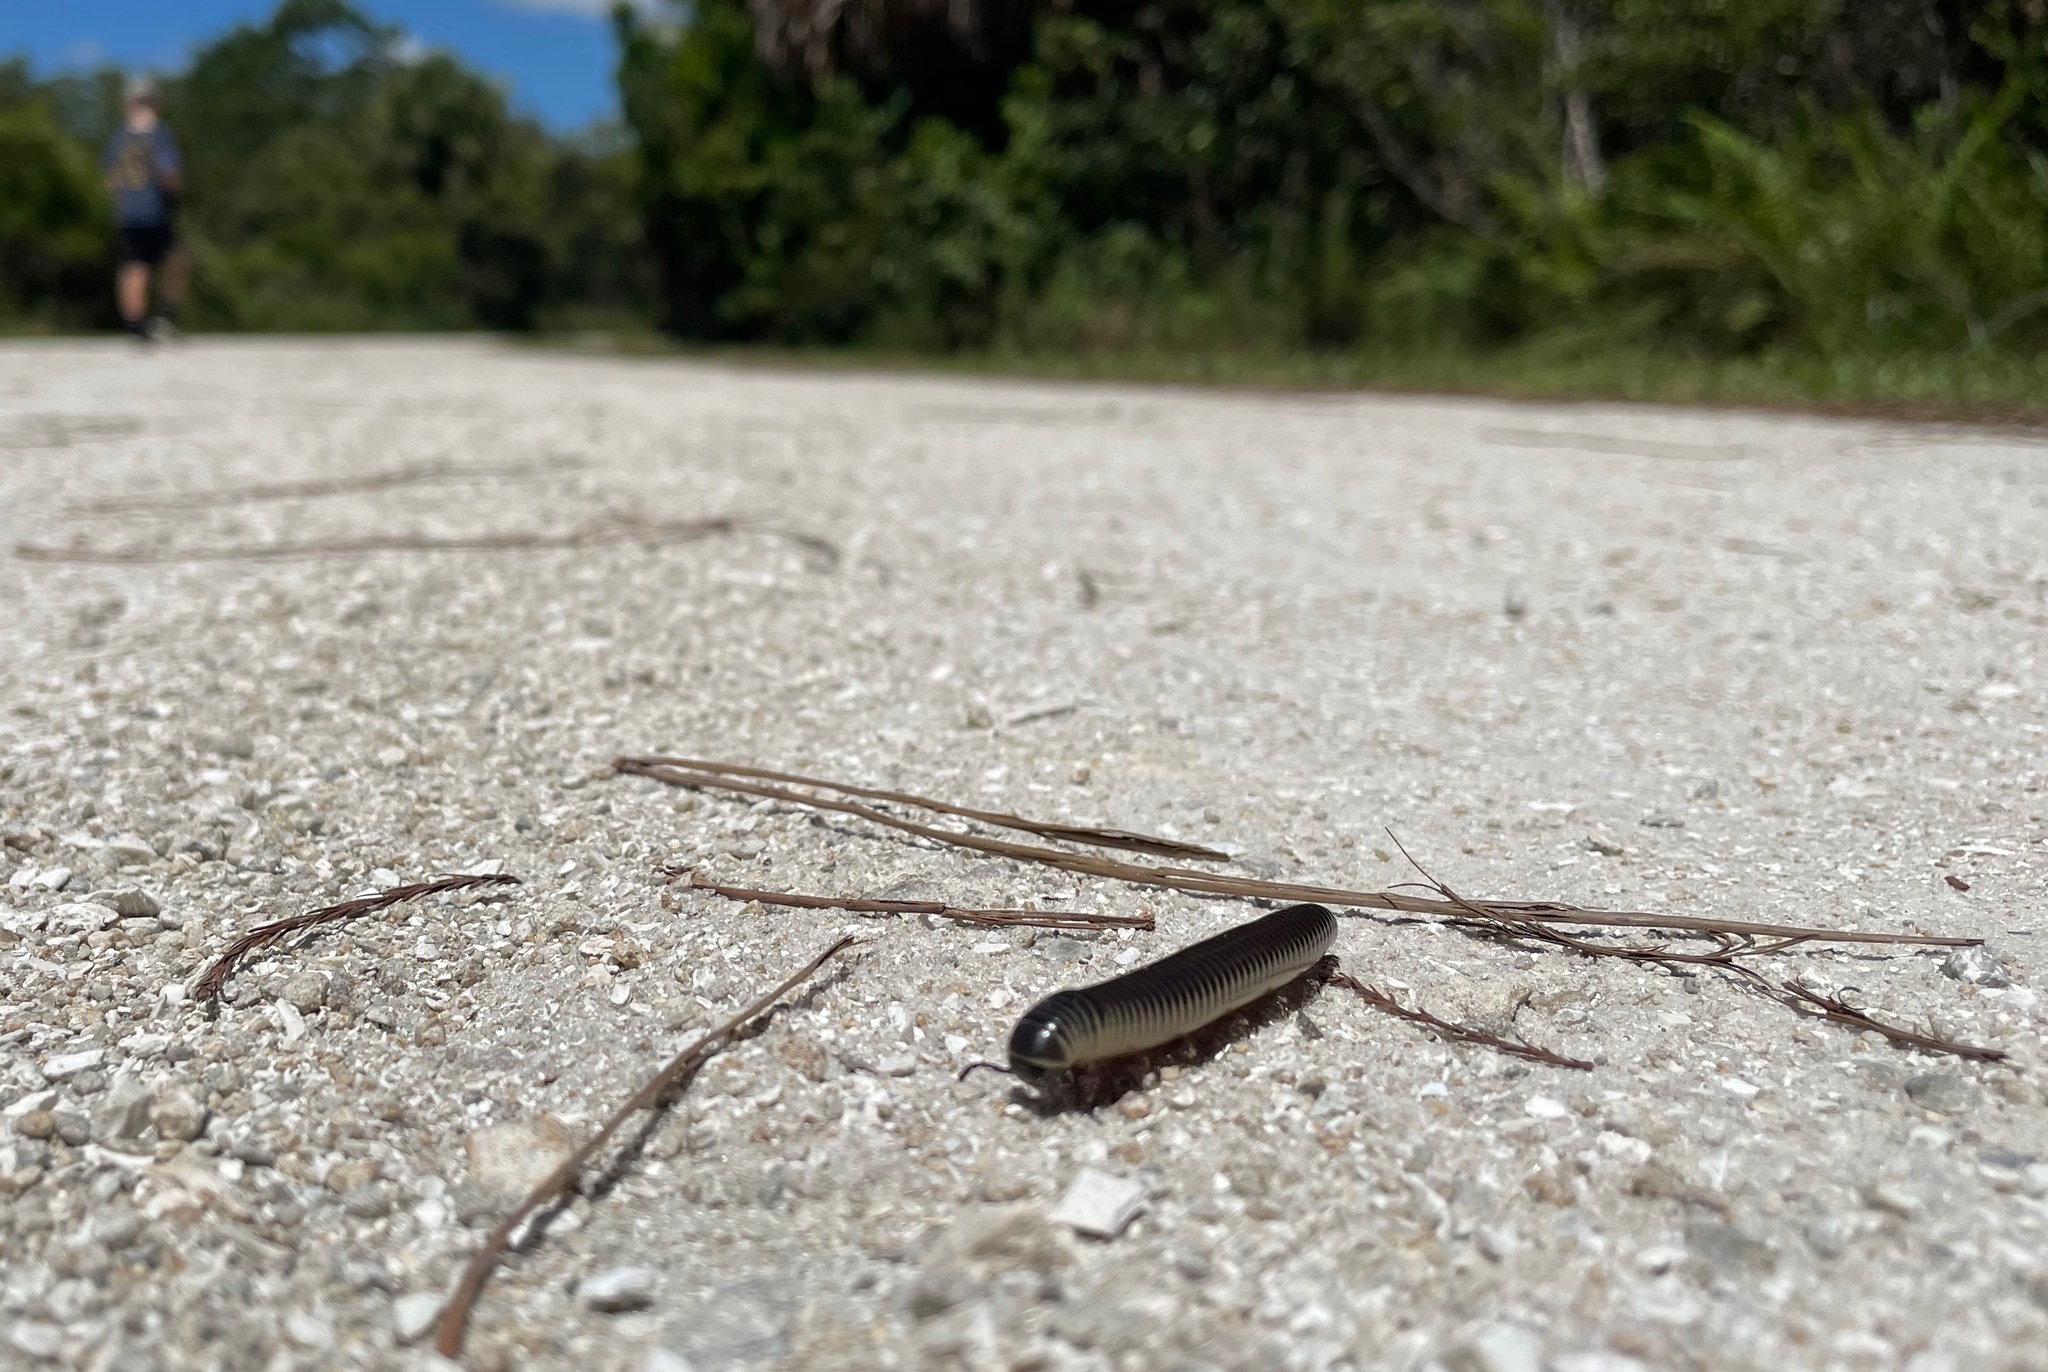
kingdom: Animalia
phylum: Arthropoda
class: Diplopoda
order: Spirobolida
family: Spirobolidae
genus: Chicobolus
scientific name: Chicobolus spinigerus
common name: Florida ivory millipede
